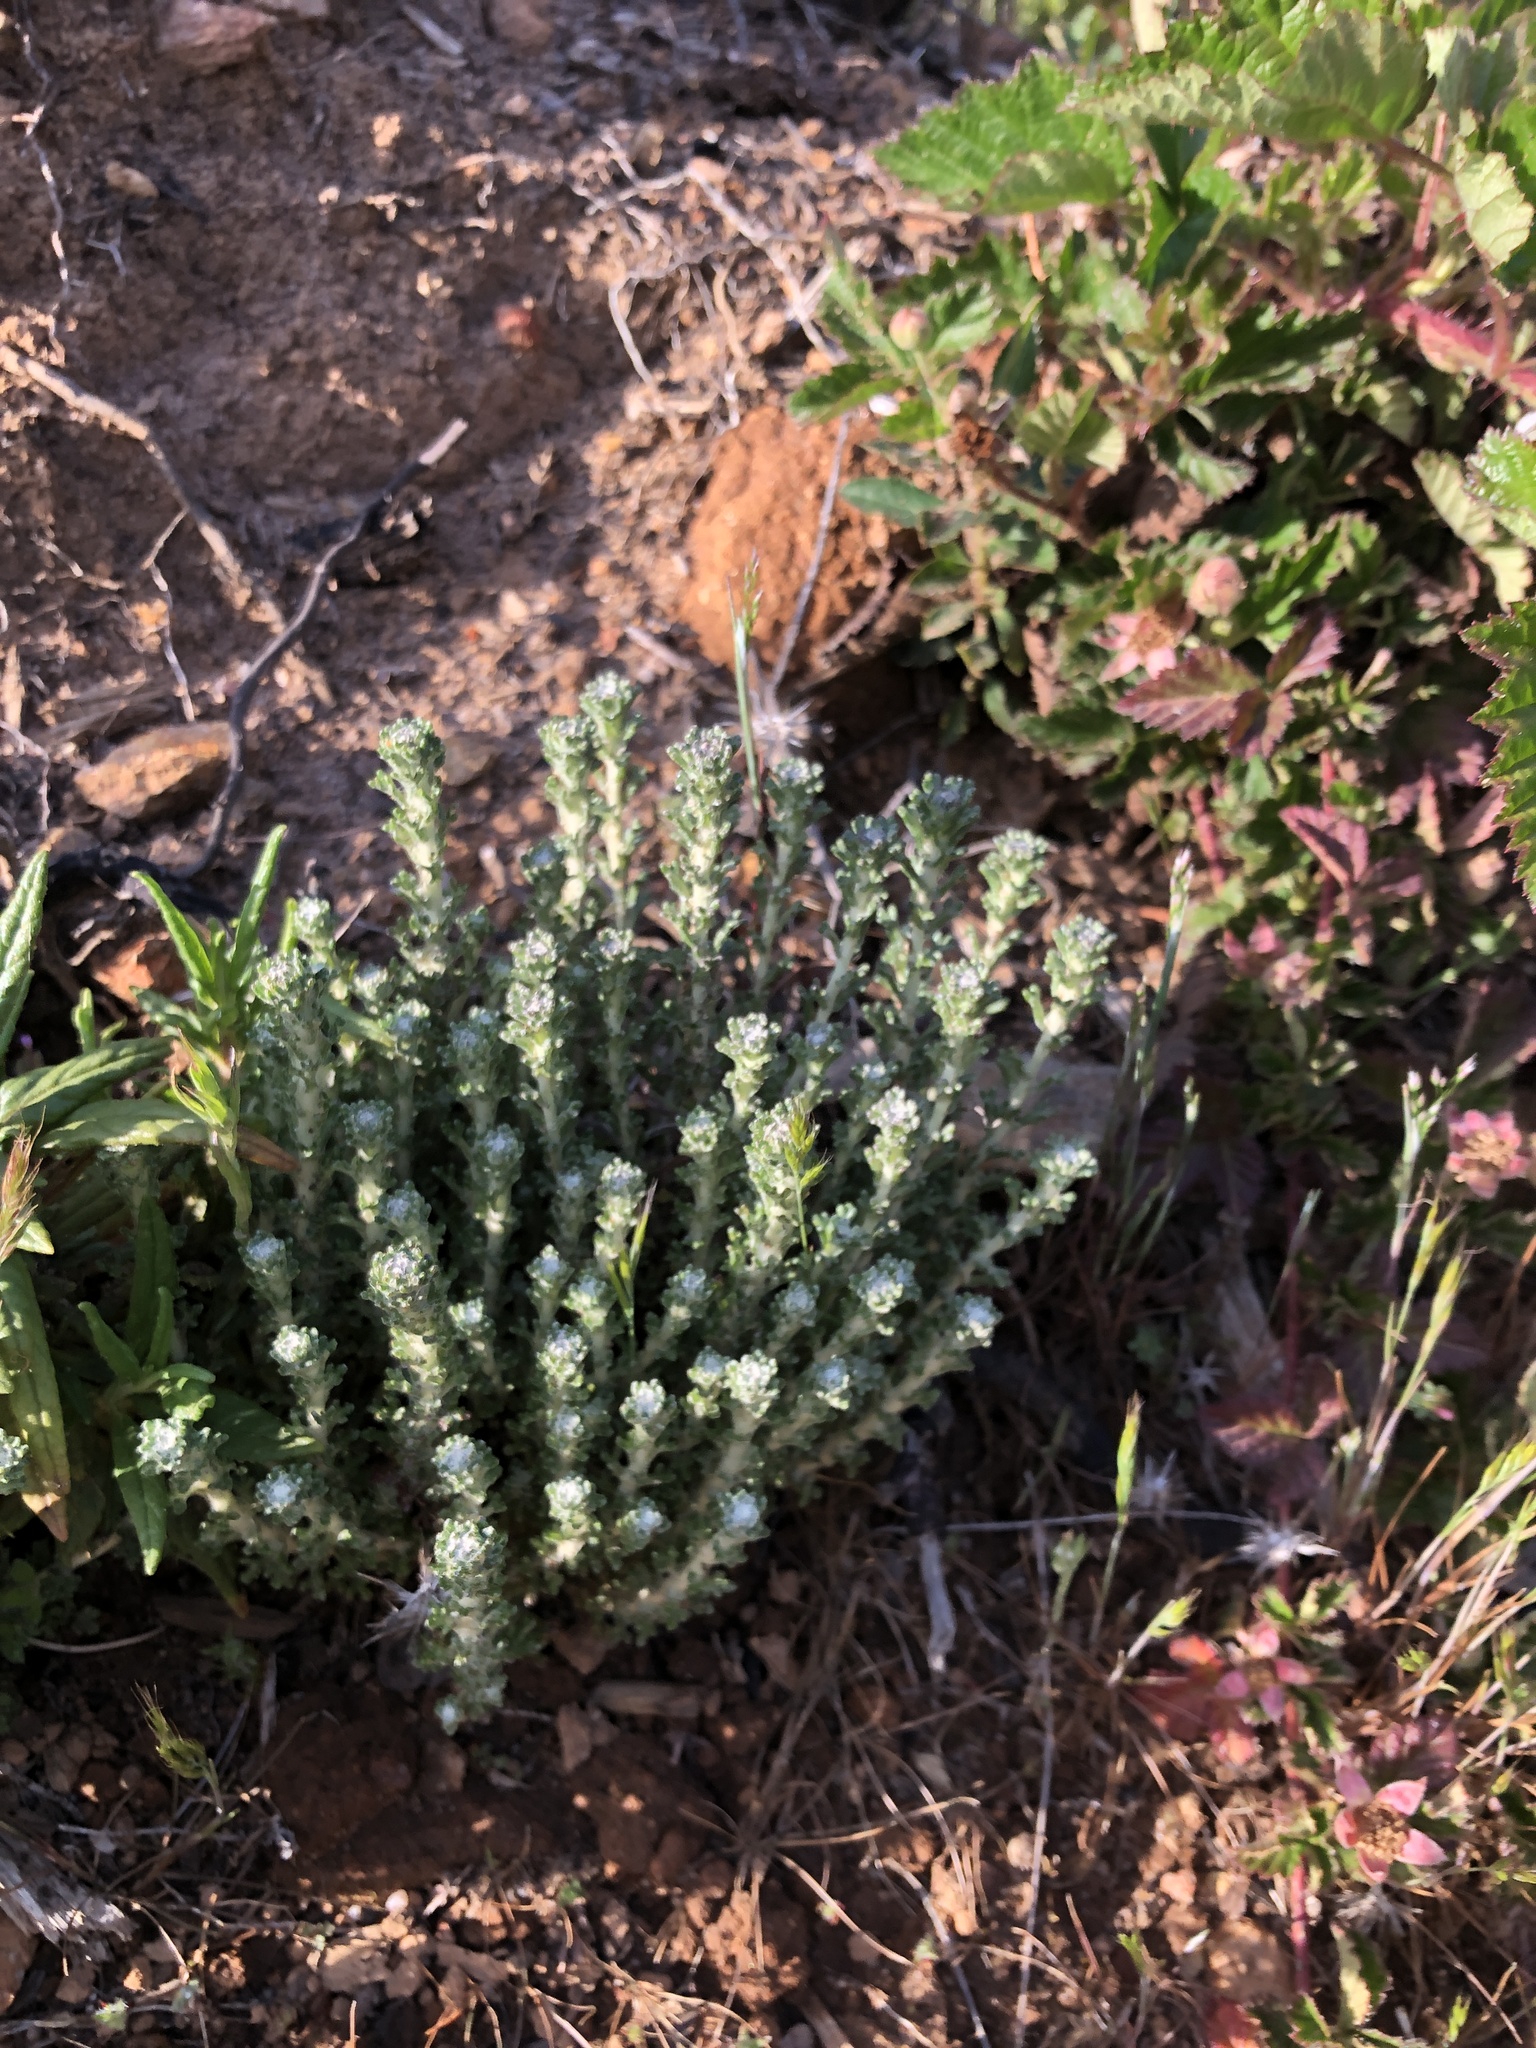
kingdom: Plantae
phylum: Tracheophyta
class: Magnoliopsida
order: Asterales
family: Asteraceae
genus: Ericameria
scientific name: Ericameria ericoides
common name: California goldenbush
